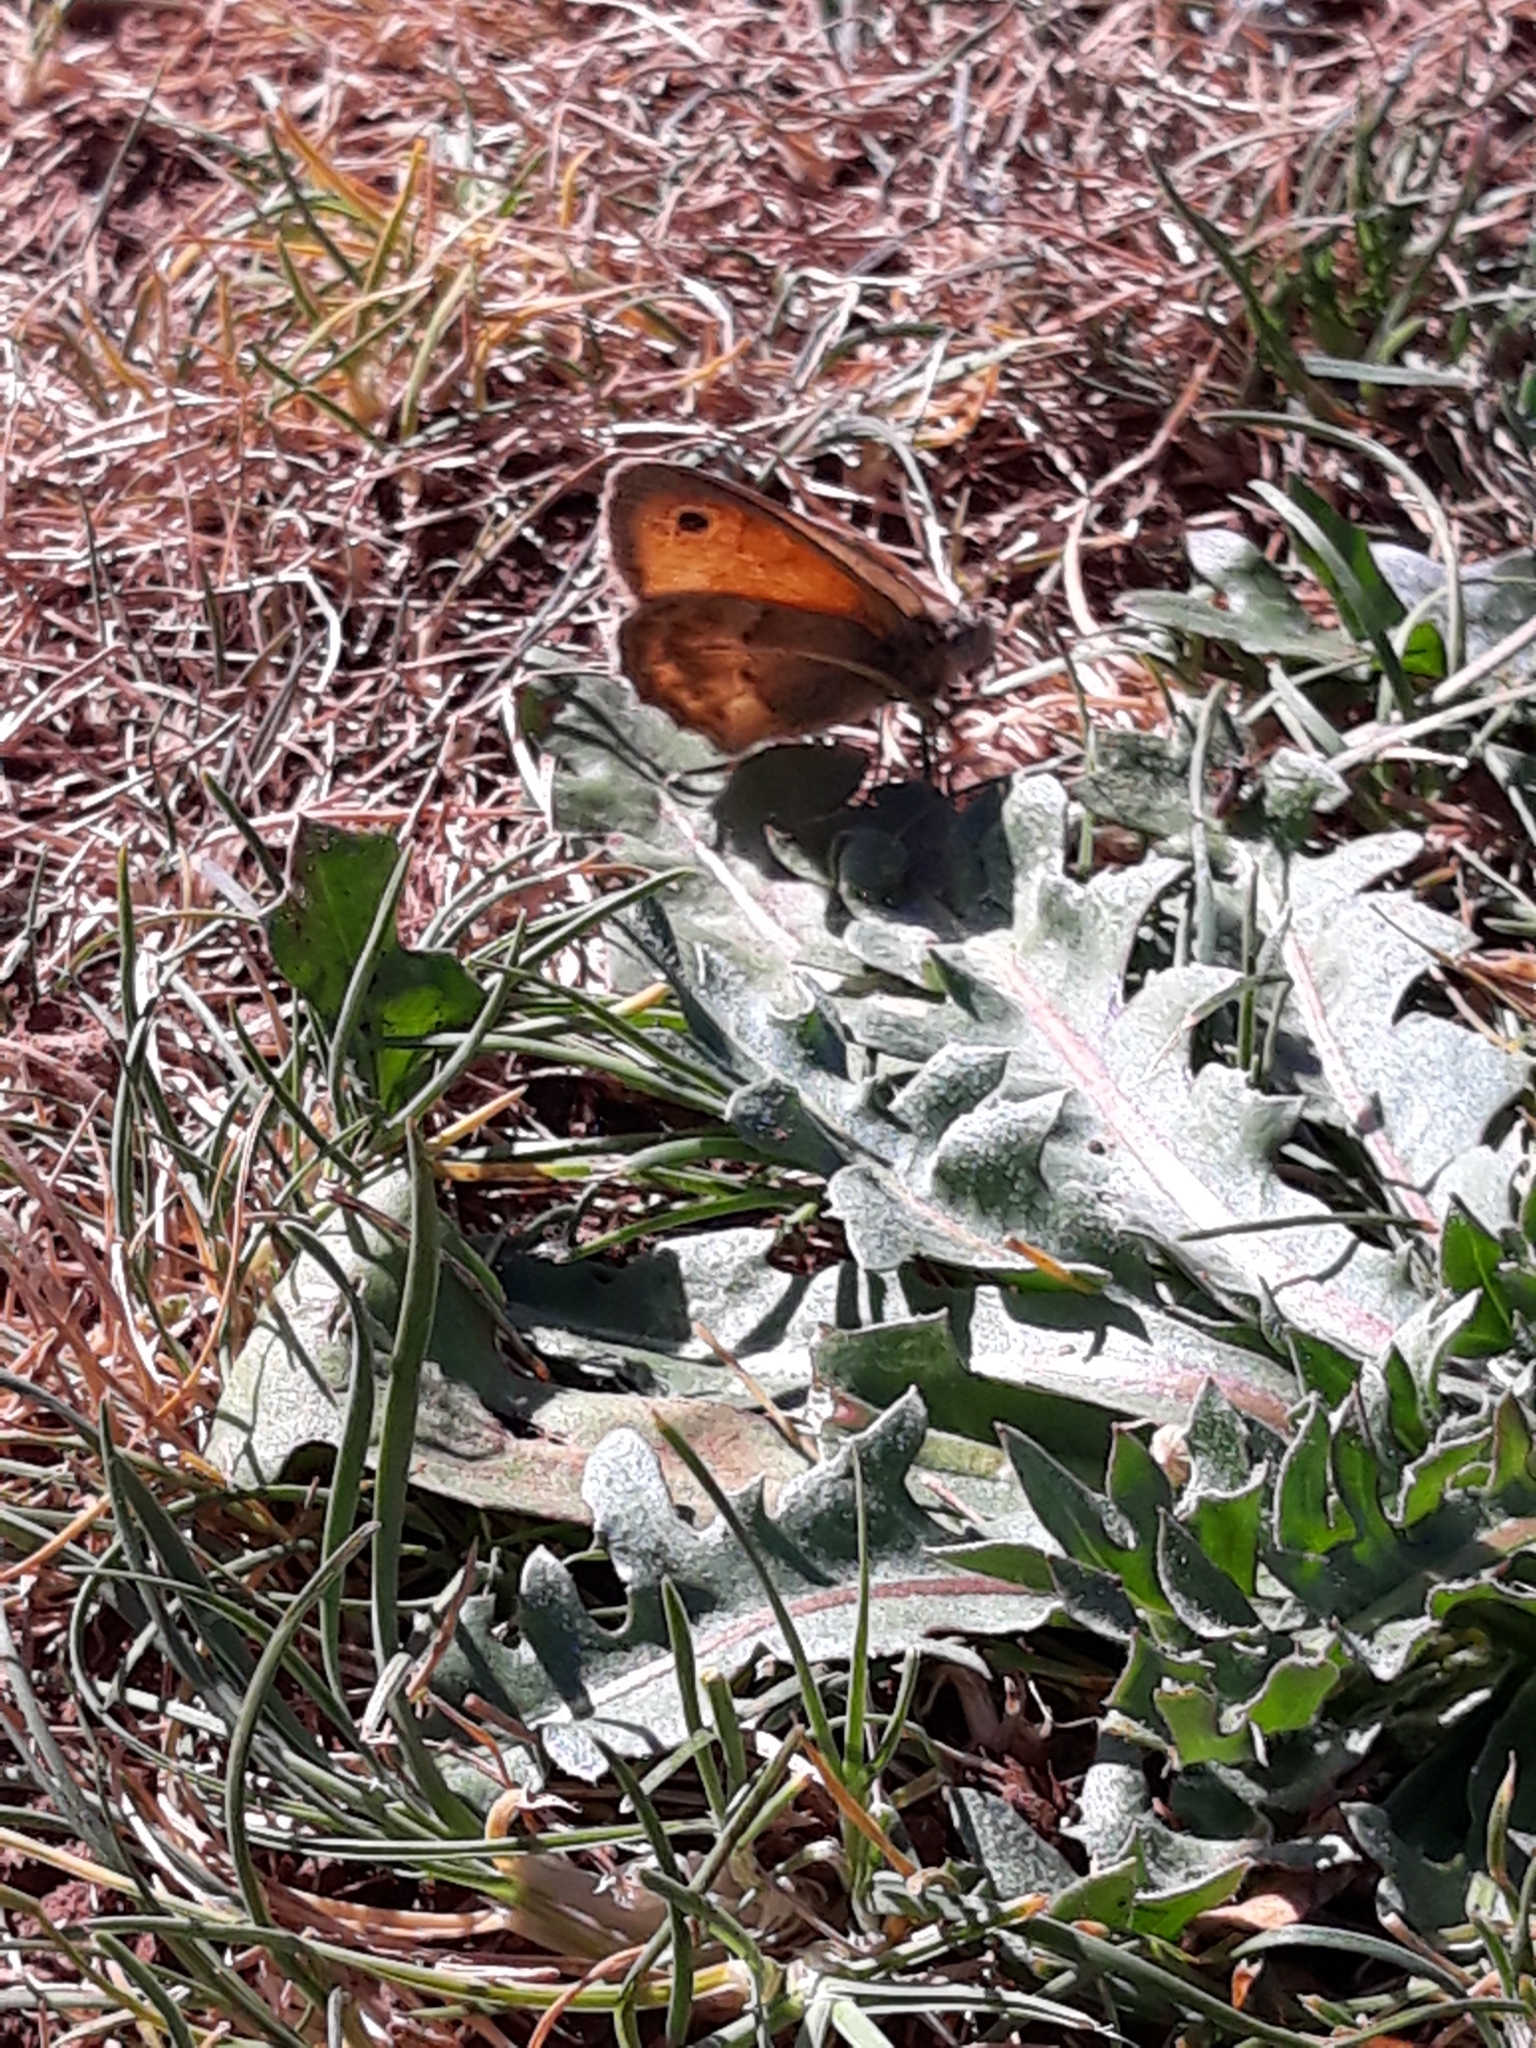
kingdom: Animalia
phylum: Arthropoda
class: Insecta
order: Lepidoptera
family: Nymphalidae
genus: Coenonympha
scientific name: Coenonympha pamphilus
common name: Small heath
